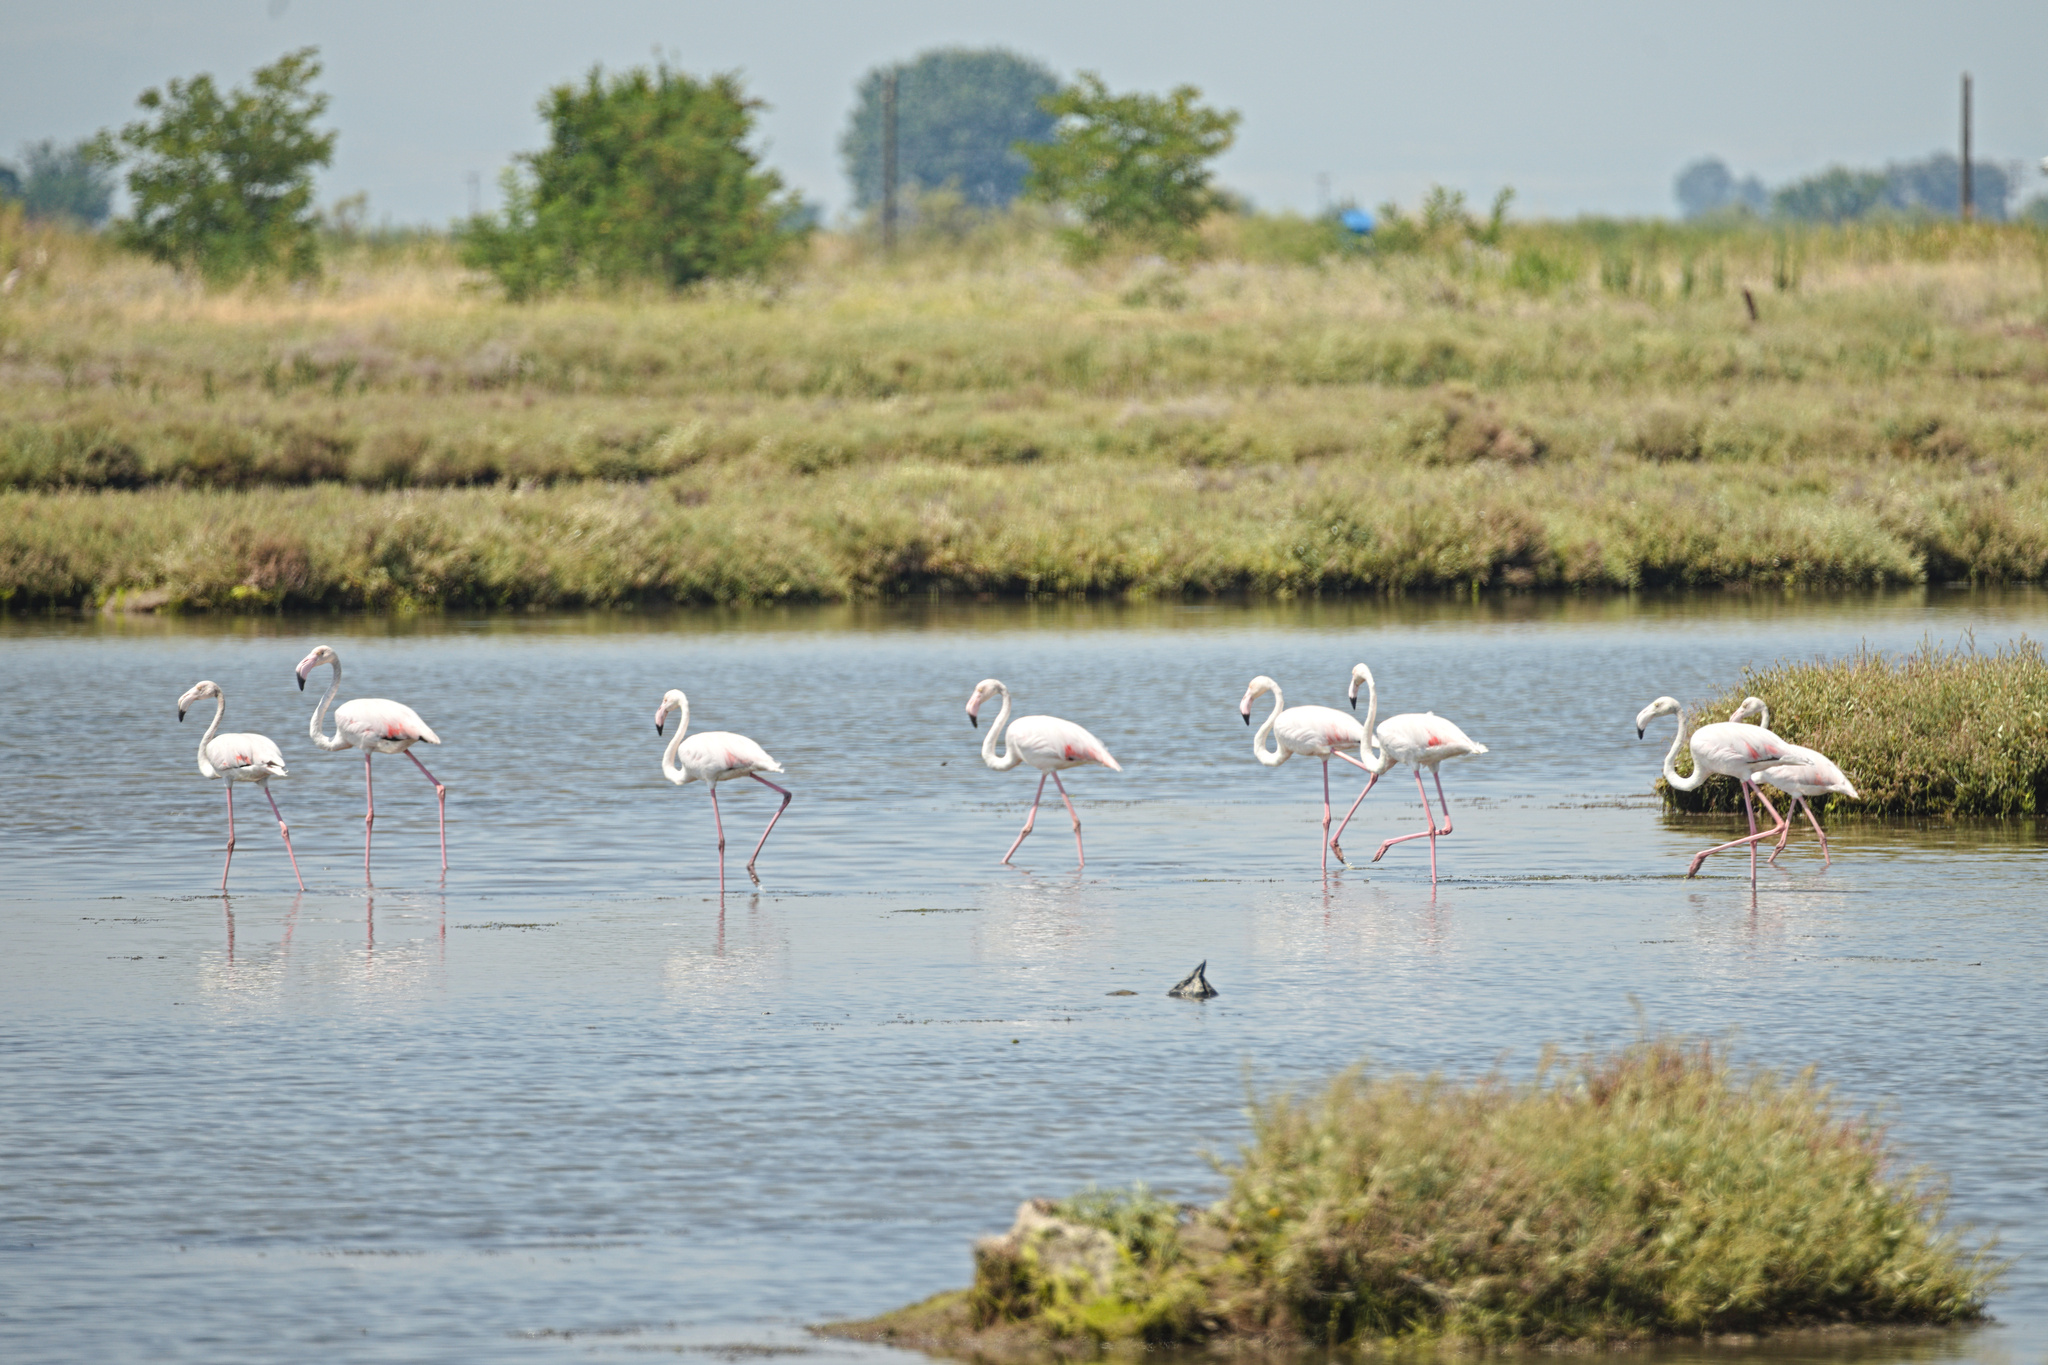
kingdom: Animalia
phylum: Chordata
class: Aves
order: Phoenicopteriformes
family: Phoenicopteridae
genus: Phoenicopterus
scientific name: Phoenicopterus roseus
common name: Greater flamingo
